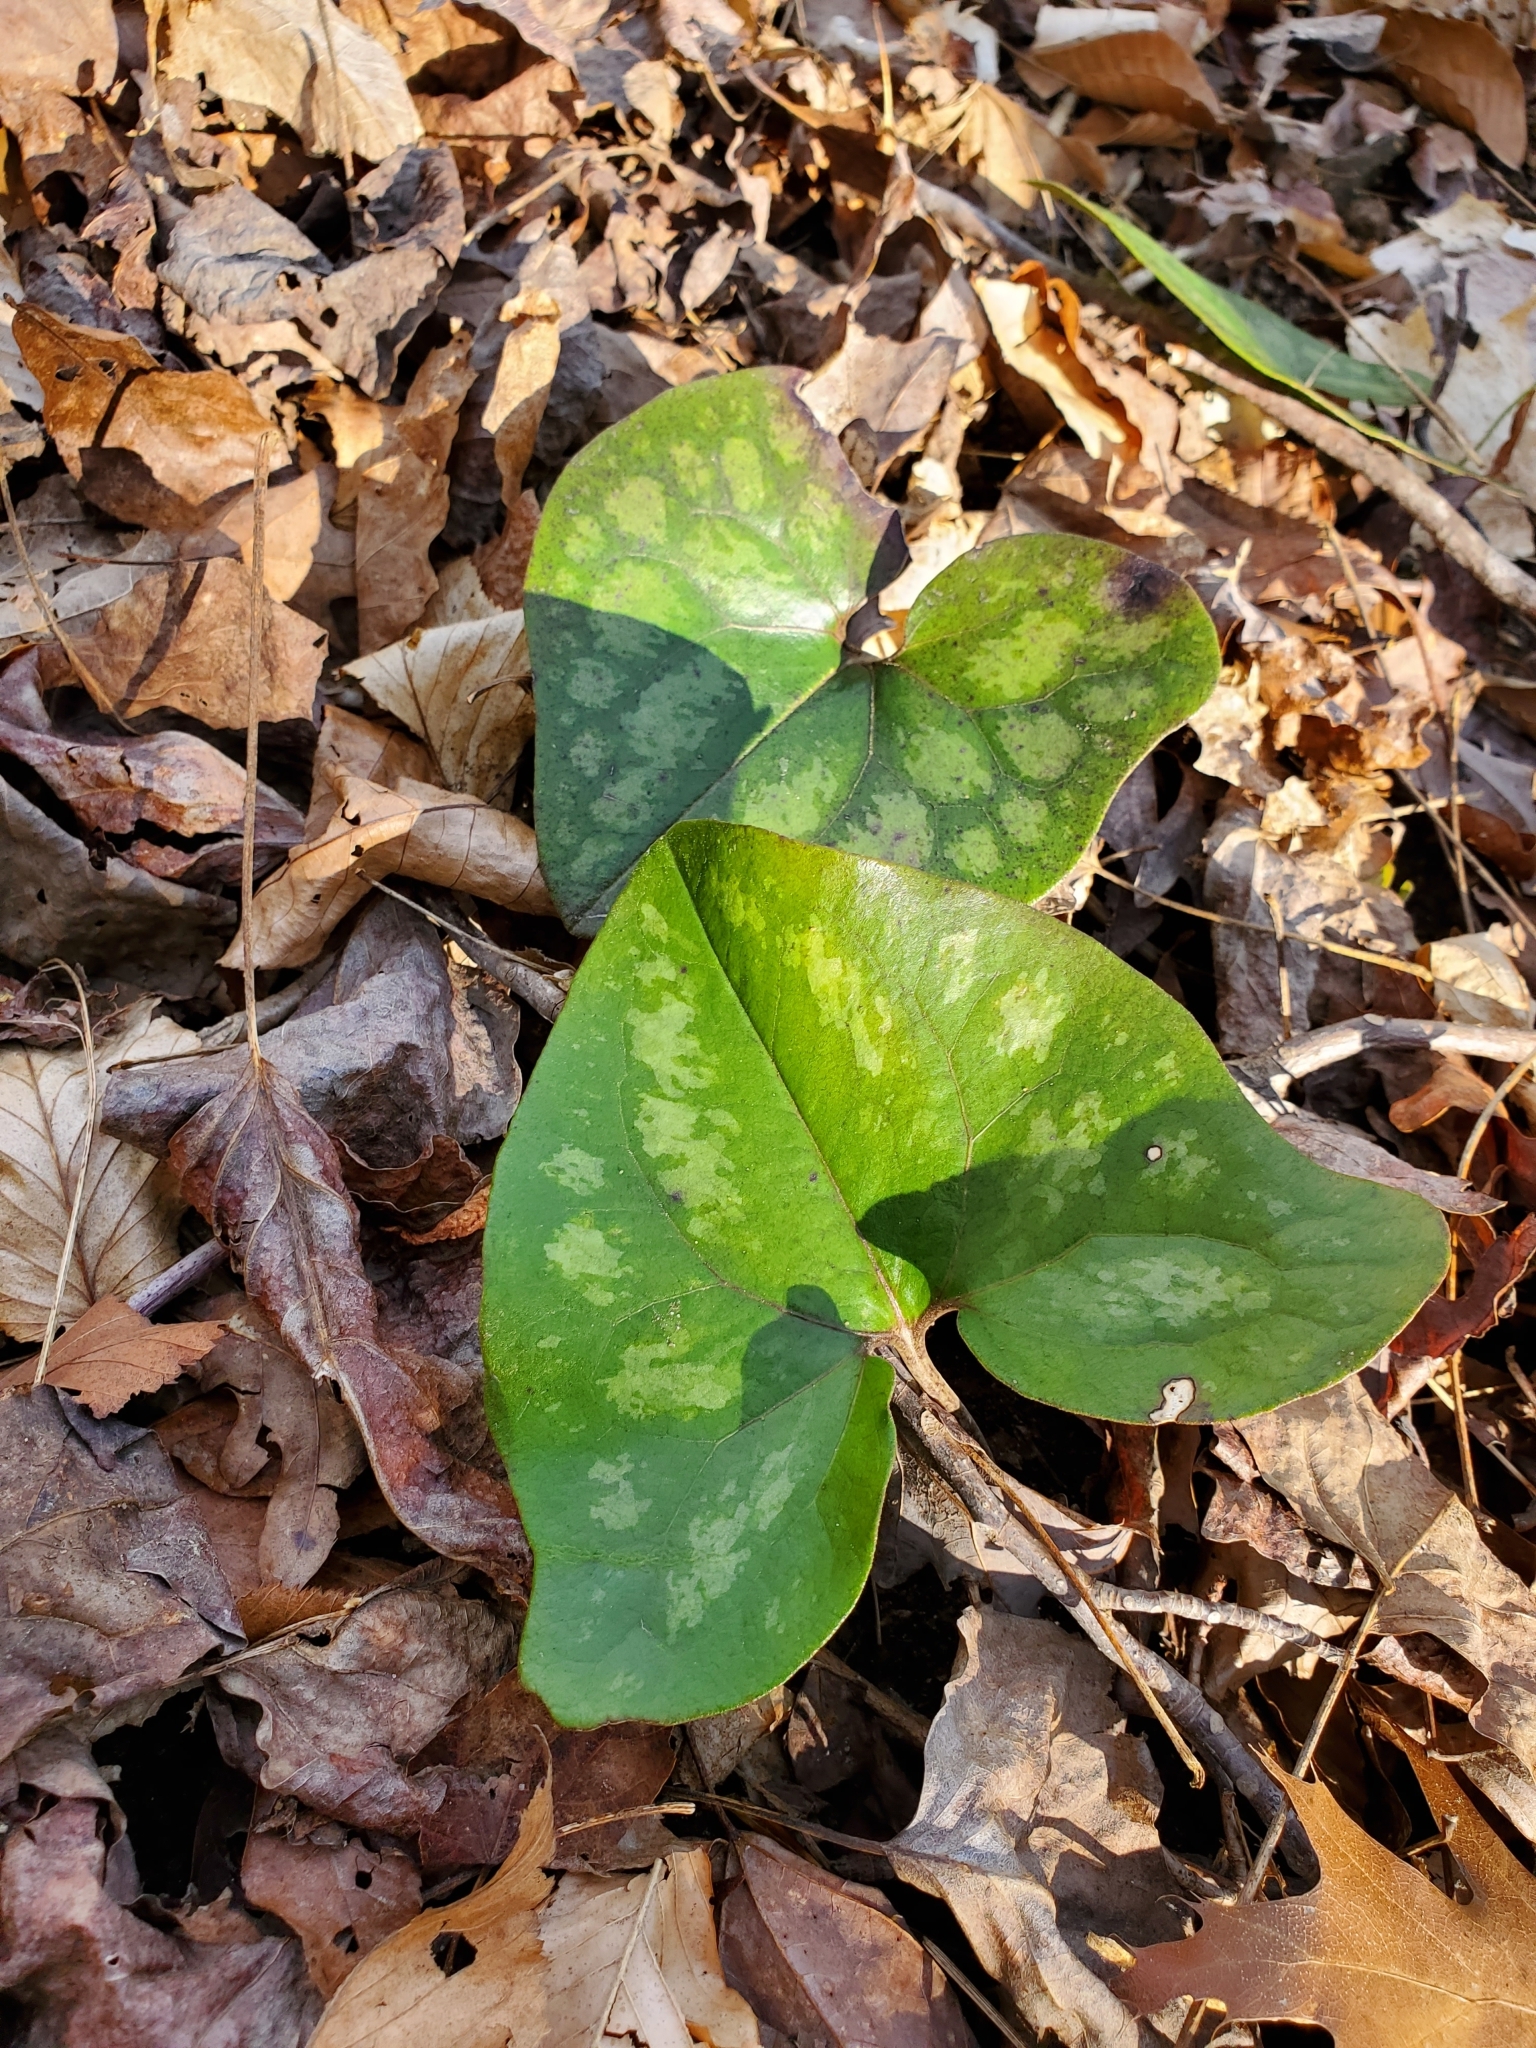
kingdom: Plantae
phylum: Tracheophyta
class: Magnoliopsida
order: Piperales
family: Aristolochiaceae
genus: Hexastylis
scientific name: Hexastylis arifolia
